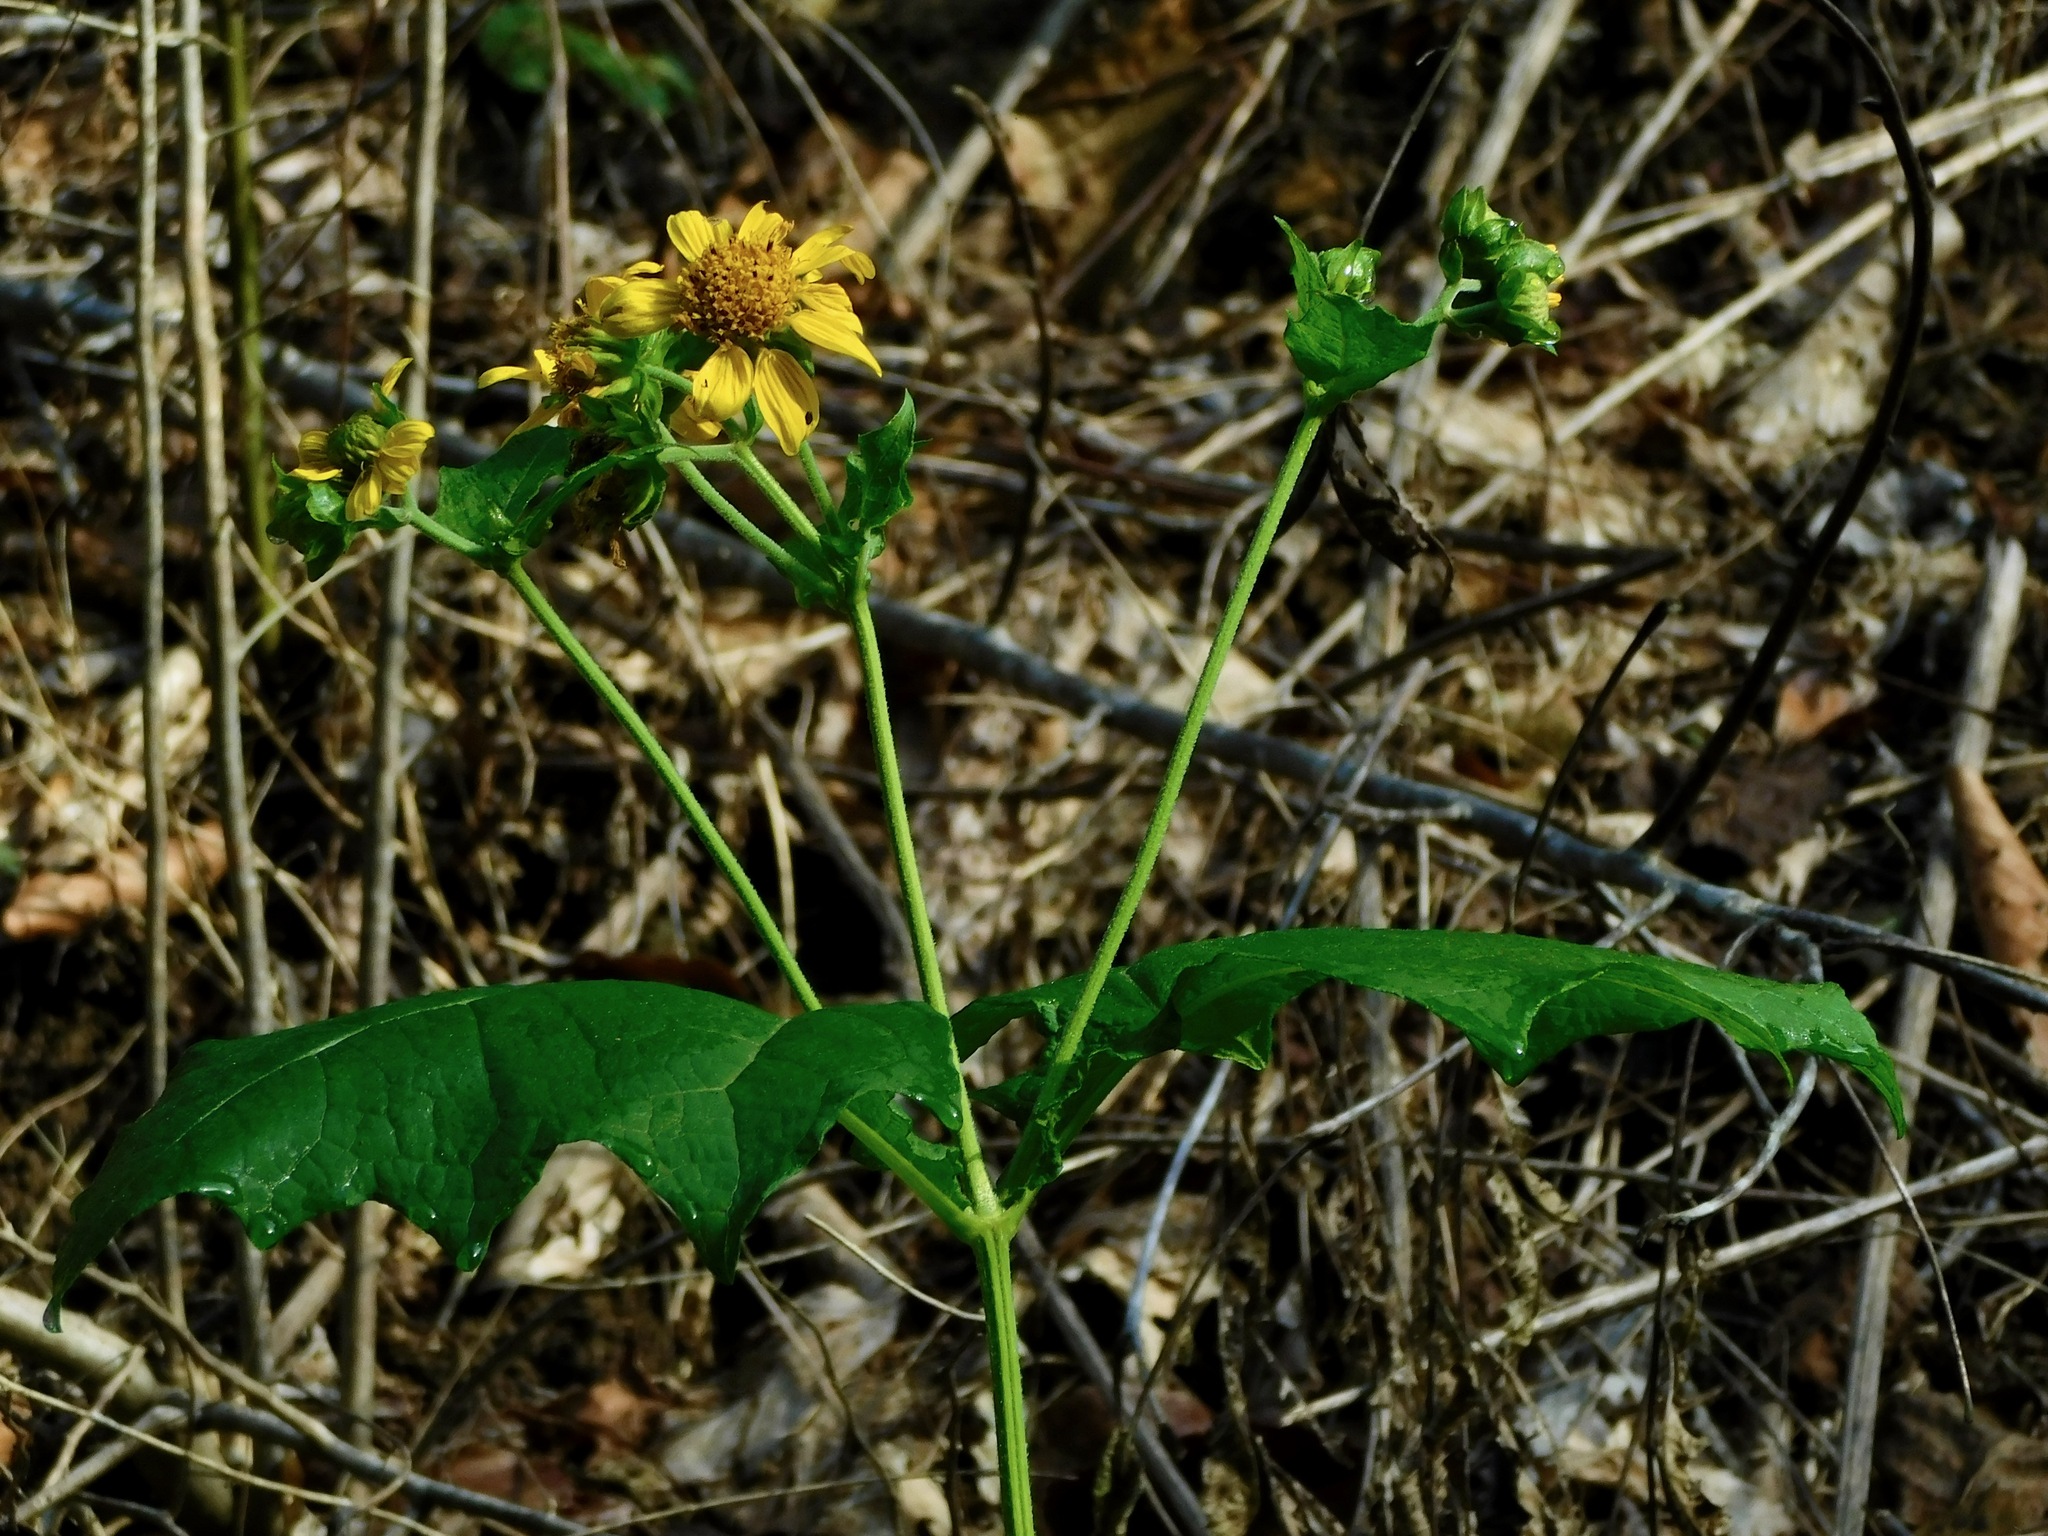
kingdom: Plantae
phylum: Tracheophyta
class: Magnoliopsida
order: Asterales
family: Asteraceae
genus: Smallanthus
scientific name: Smallanthus uvedalia
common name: Bear's-foot
